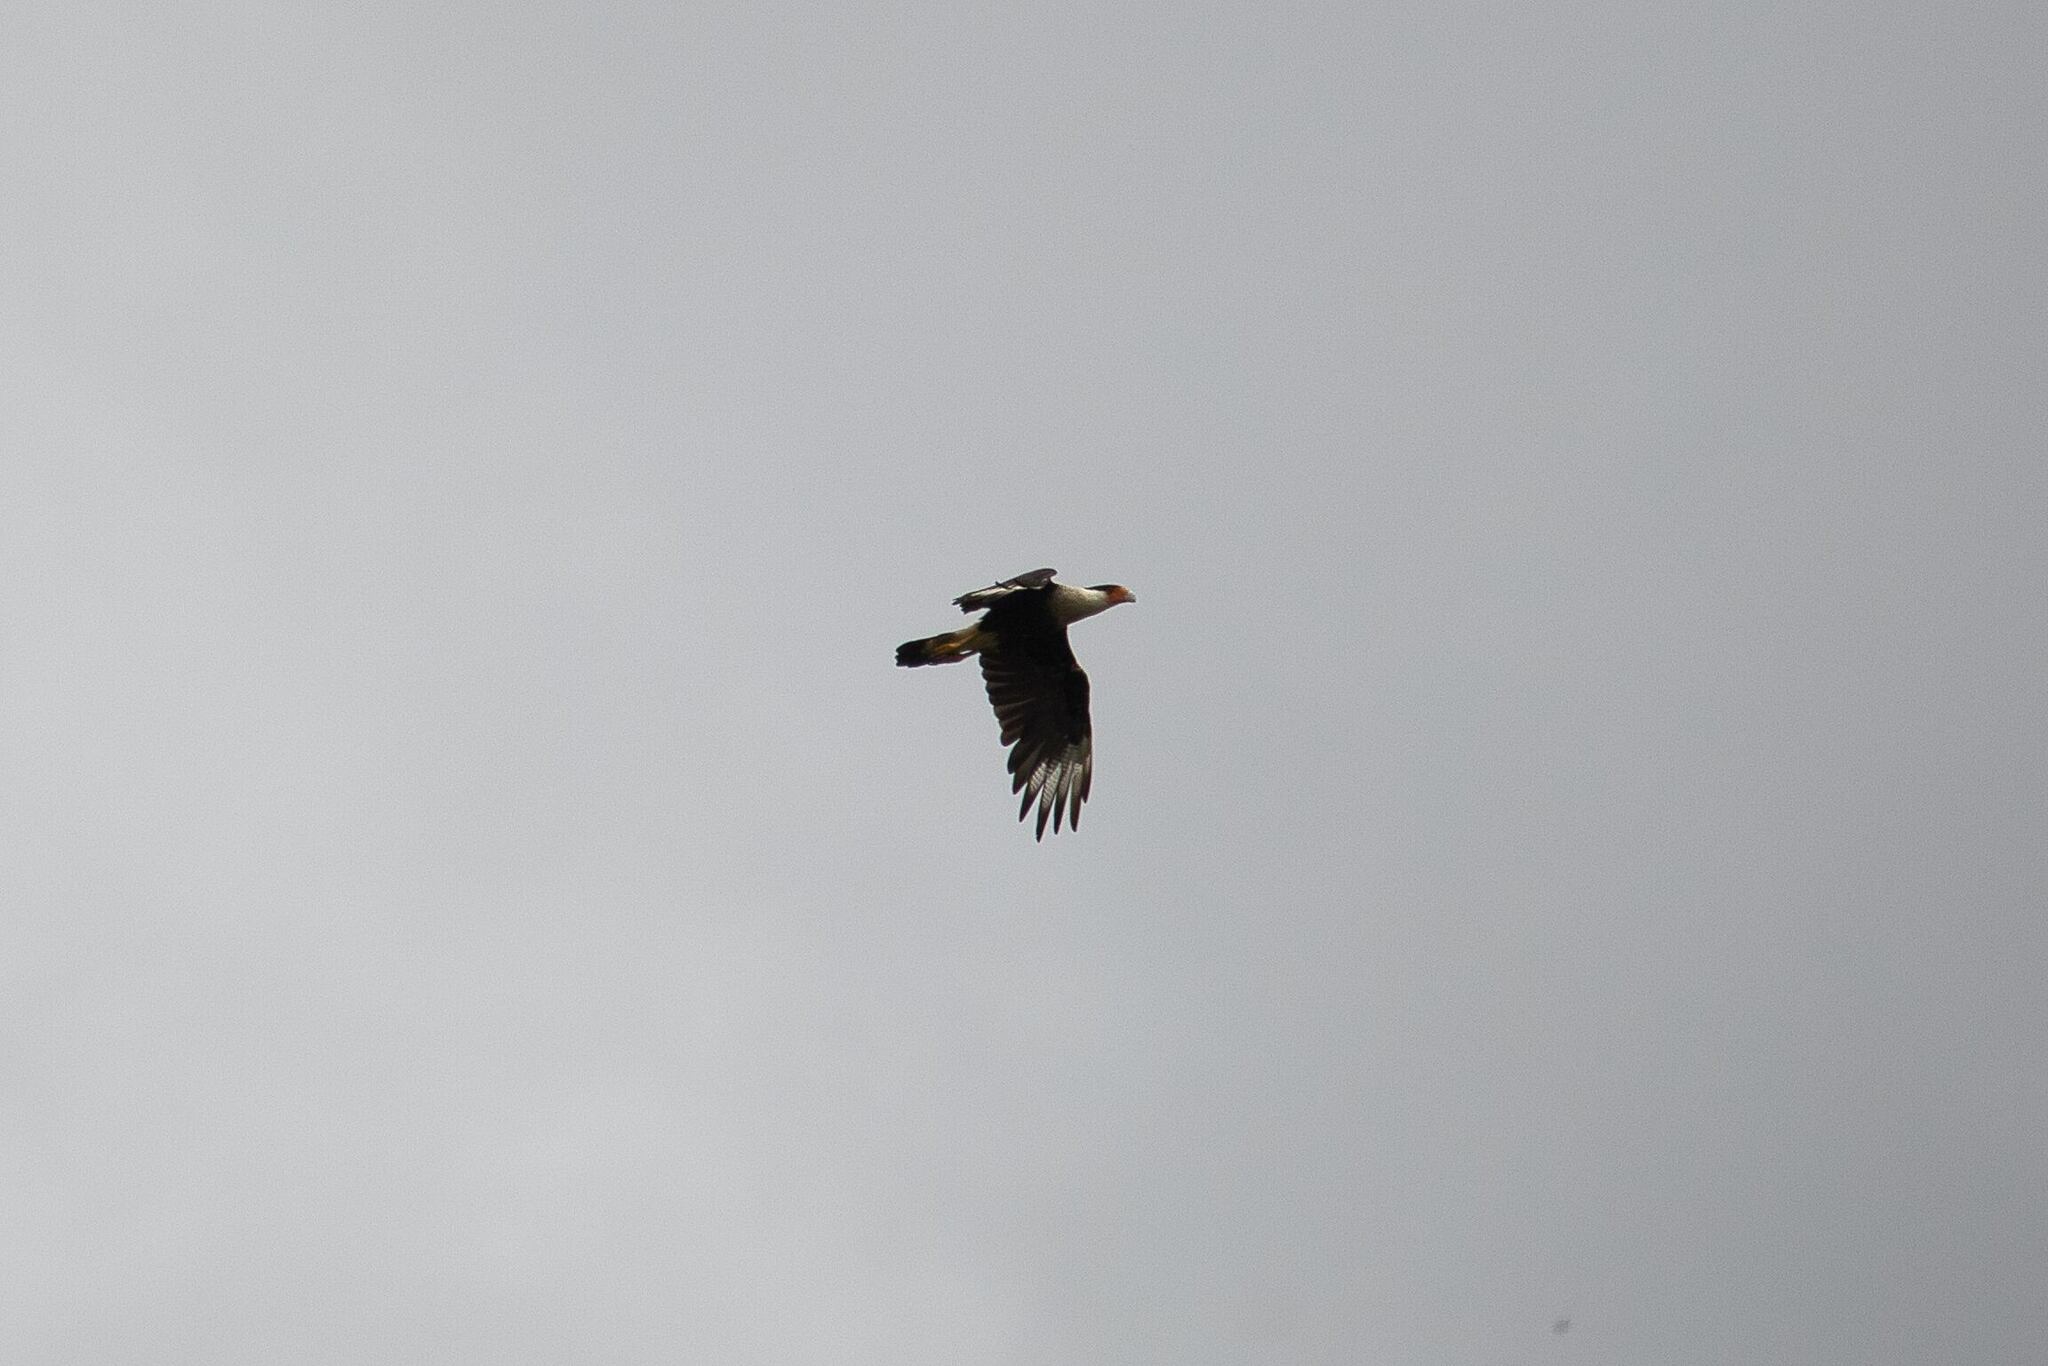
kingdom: Animalia
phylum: Chordata
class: Aves
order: Falconiformes
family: Falconidae
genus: Caracara
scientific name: Caracara plancus
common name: Southern caracara
